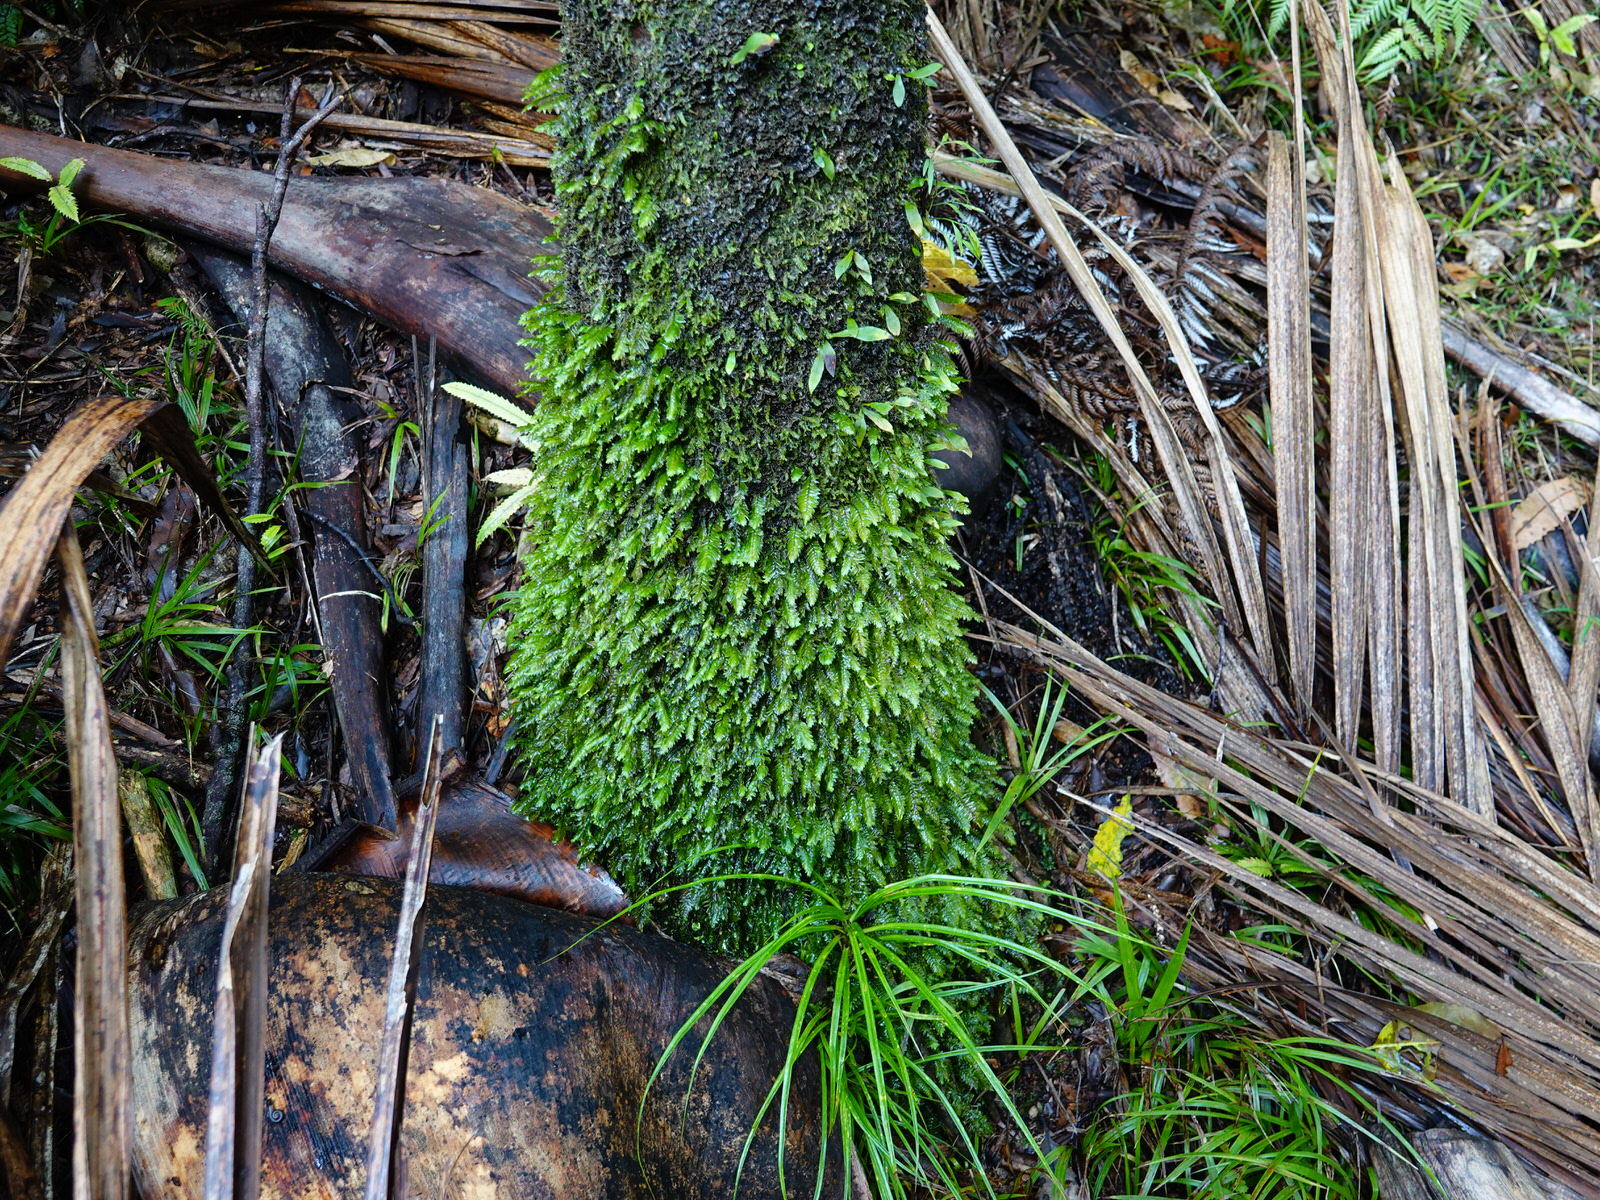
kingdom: Plantae
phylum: Bryophyta
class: Bryopsida
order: Hypopterygiales
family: Hypopterygiaceae
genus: Cyathophorum
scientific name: Cyathophorum bulbosum
